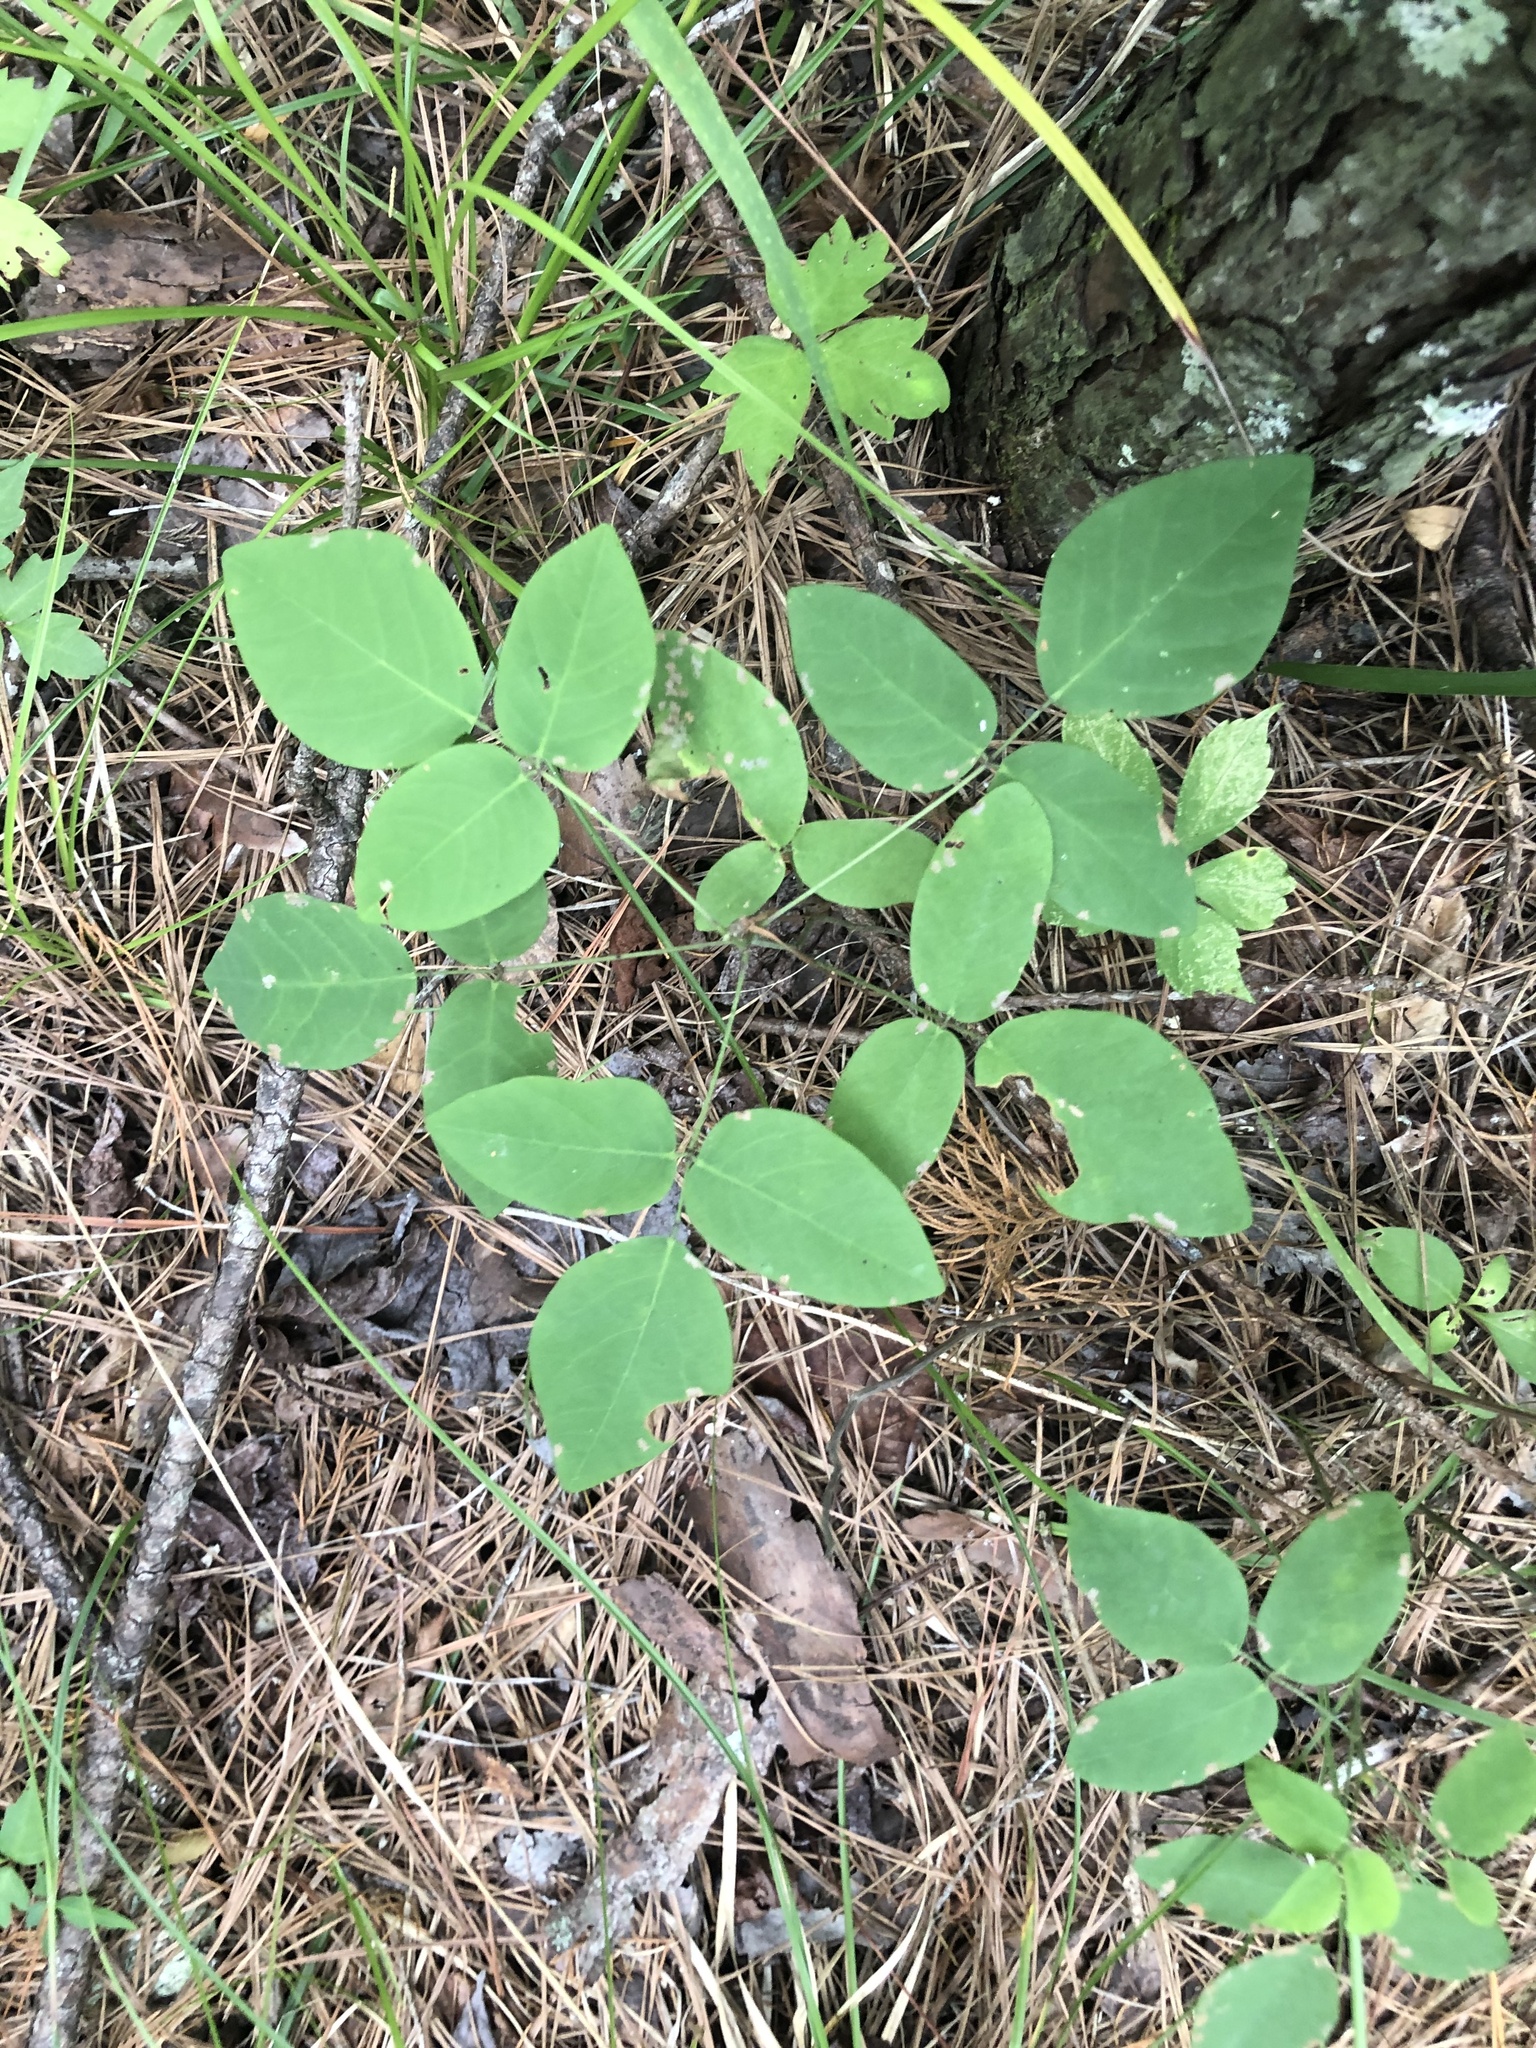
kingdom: Plantae
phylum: Tracheophyta
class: Magnoliopsida
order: Fabales
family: Fabaceae
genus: Desmodium
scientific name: Desmodium laevigatum
